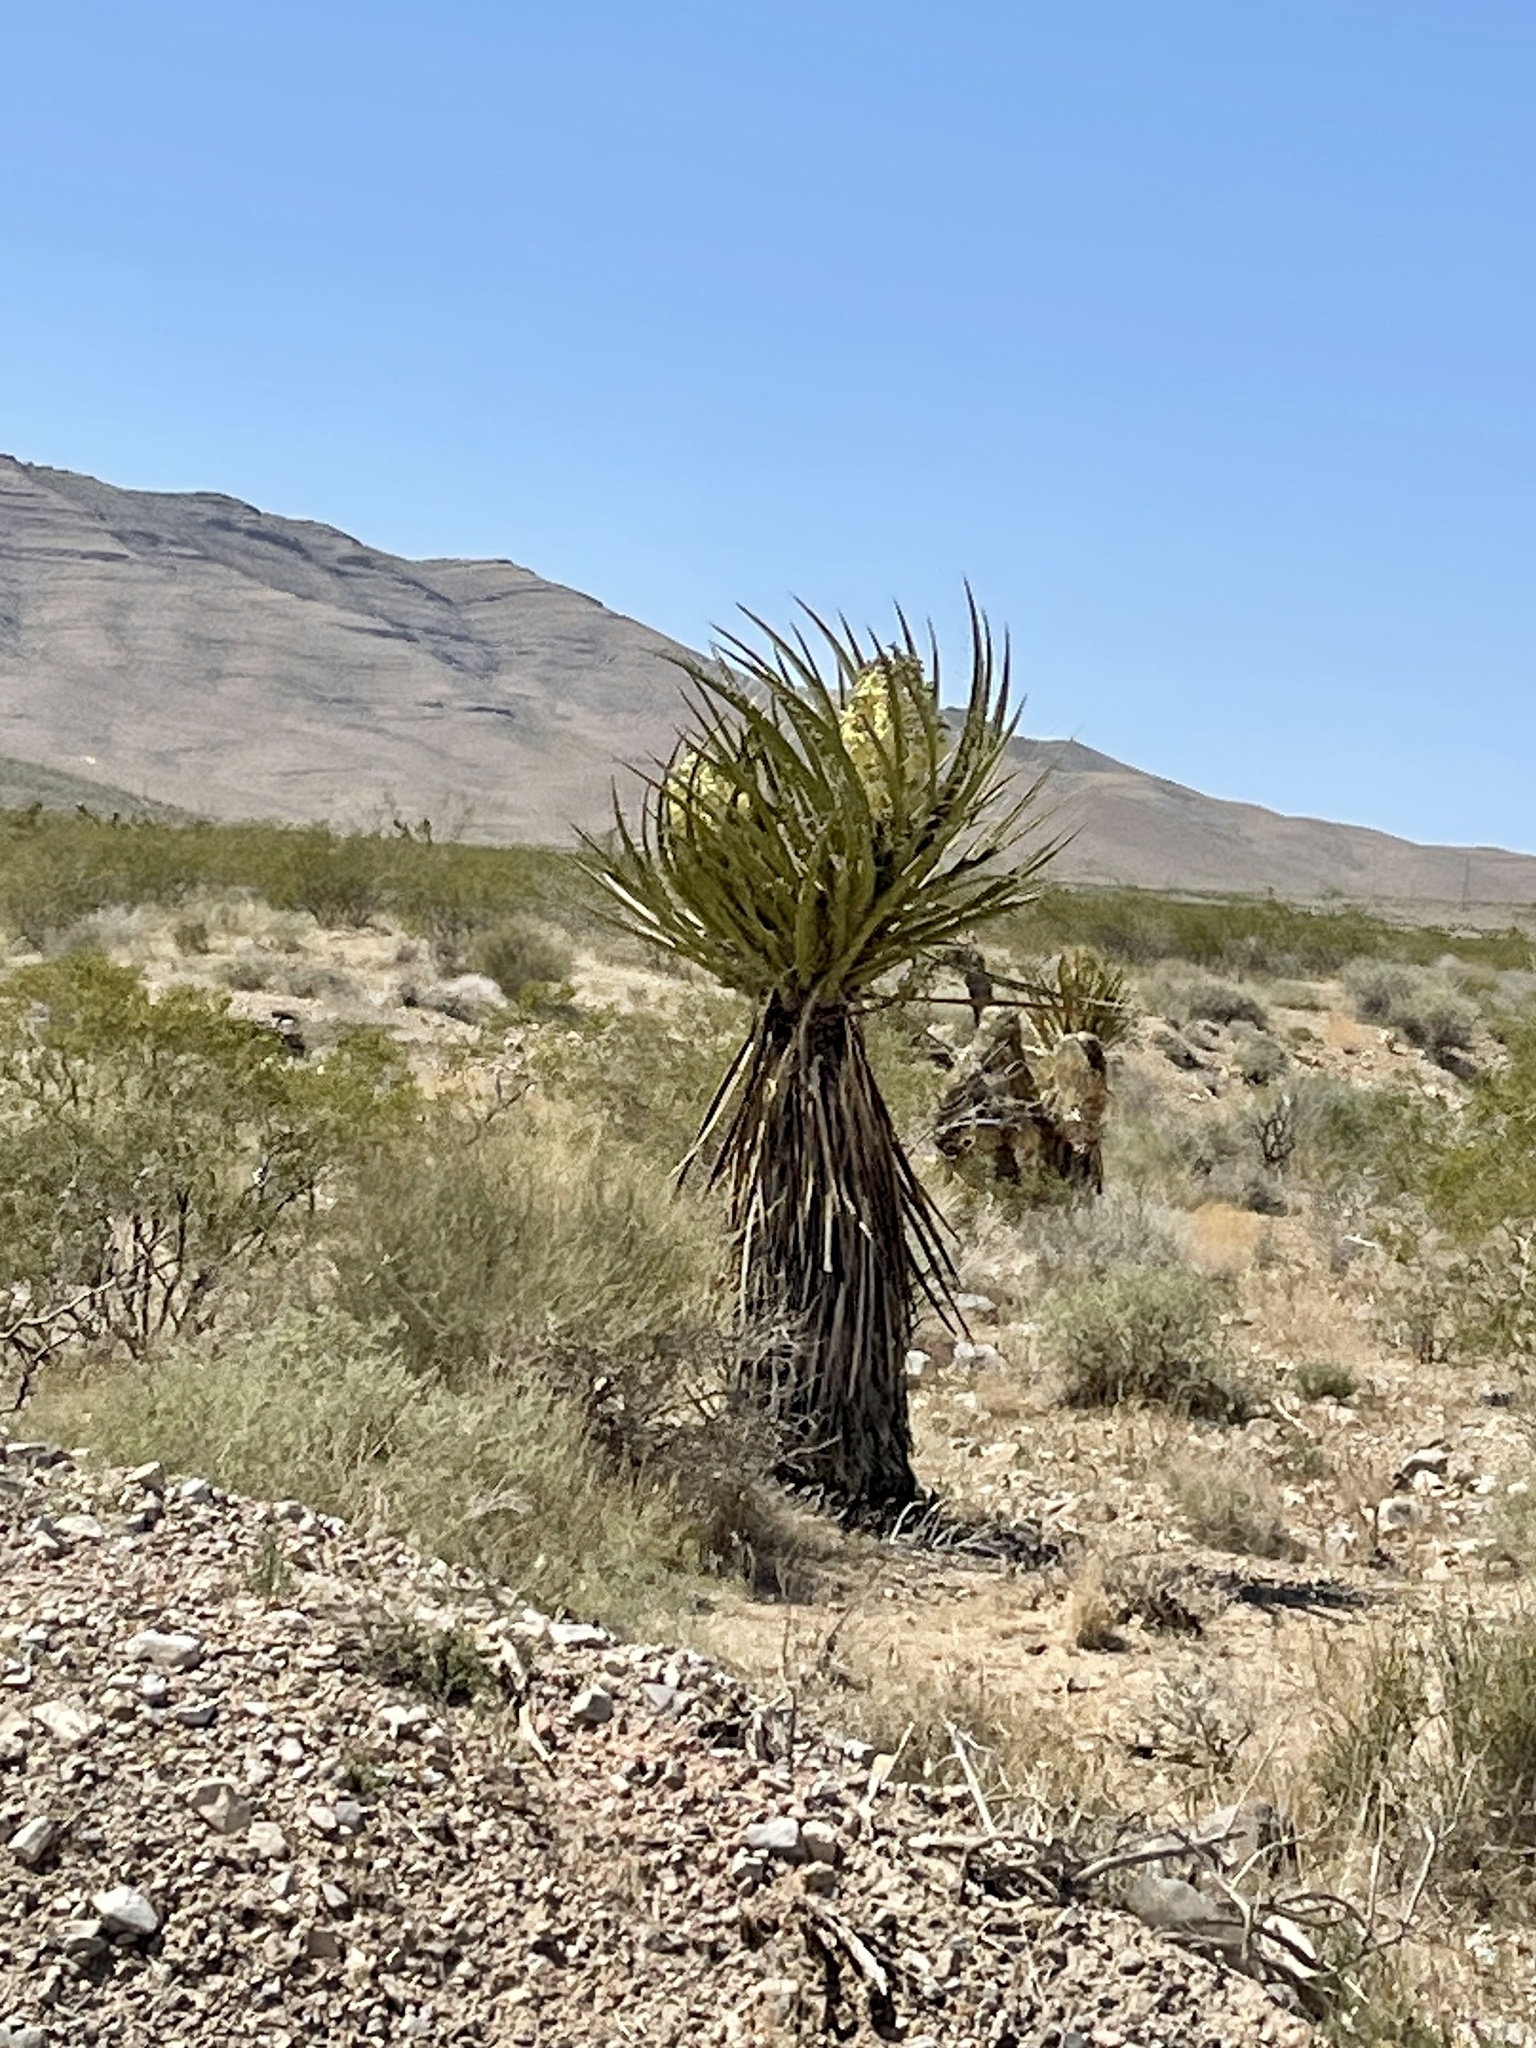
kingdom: Plantae
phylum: Tracheophyta
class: Liliopsida
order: Asparagales
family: Asparagaceae
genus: Yucca
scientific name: Yucca schidigera
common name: Mojave yucca
